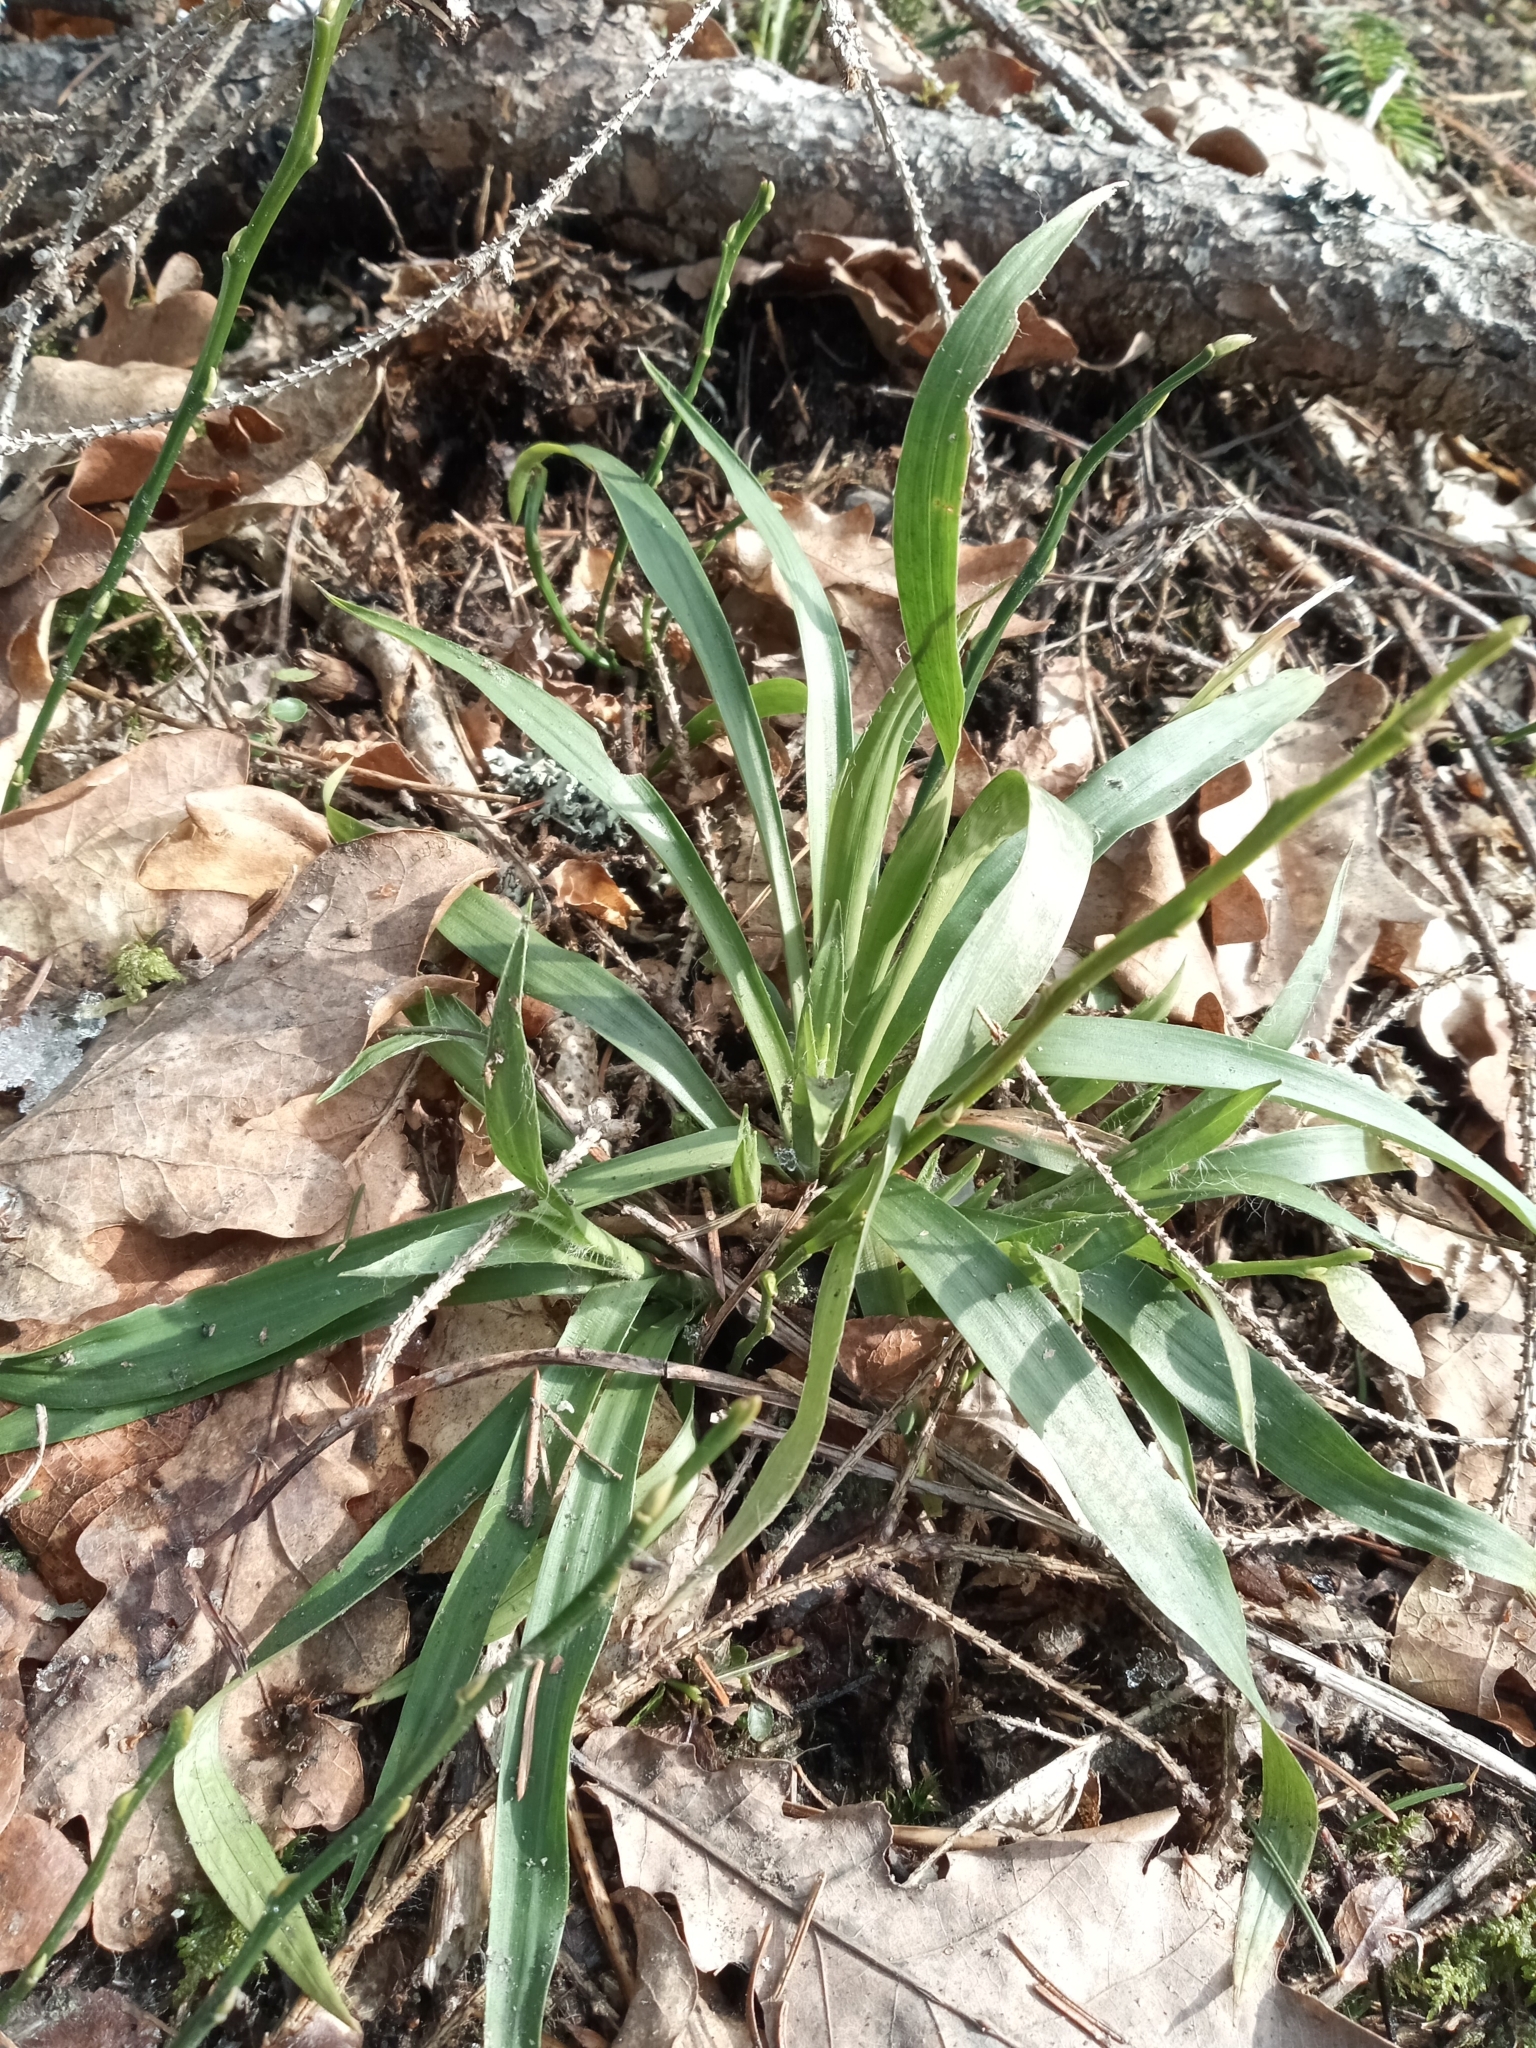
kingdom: Plantae
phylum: Tracheophyta
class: Liliopsida
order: Poales
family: Juncaceae
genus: Luzula
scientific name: Luzula pilosa
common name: Hairy wood-rush
